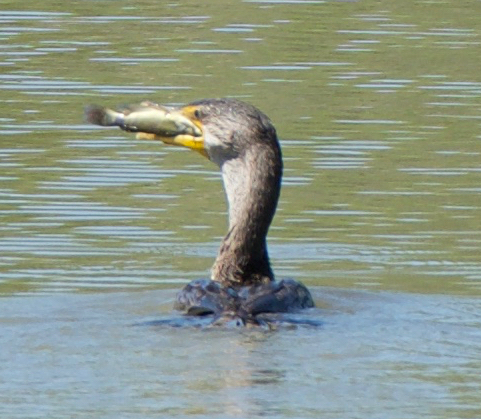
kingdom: Animalia
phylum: Chordata
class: Aves
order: Suliformes
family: Phalacrocoracidae
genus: Phalacrocorax
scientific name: Phalacrocorax auritus
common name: Double-crested cormorant
